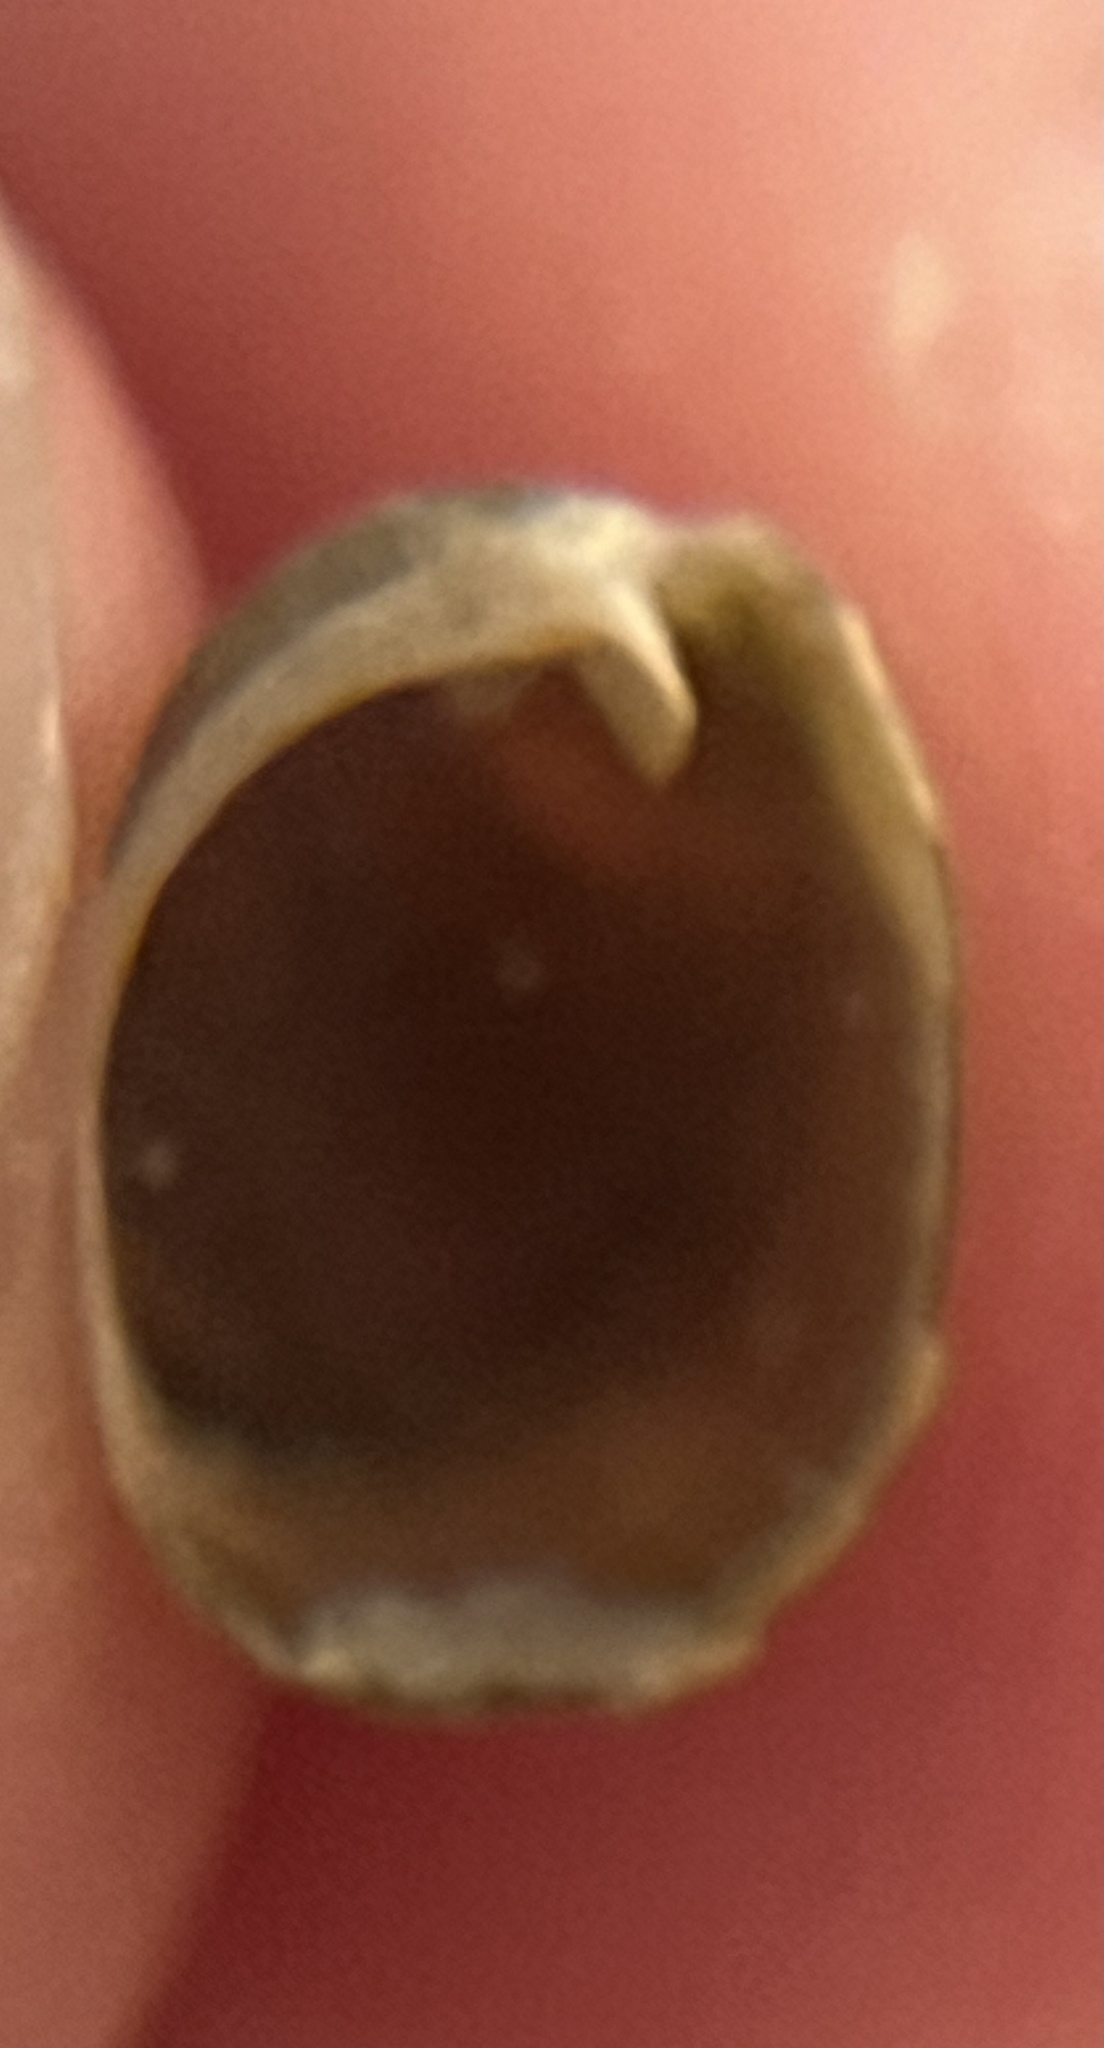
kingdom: Animalia
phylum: Mollusca
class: Gastropoda
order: Cephalaspidea
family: Haminoeidae
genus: Smaragdinella
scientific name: Smaragdinella calyculata
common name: Emerald bubble
